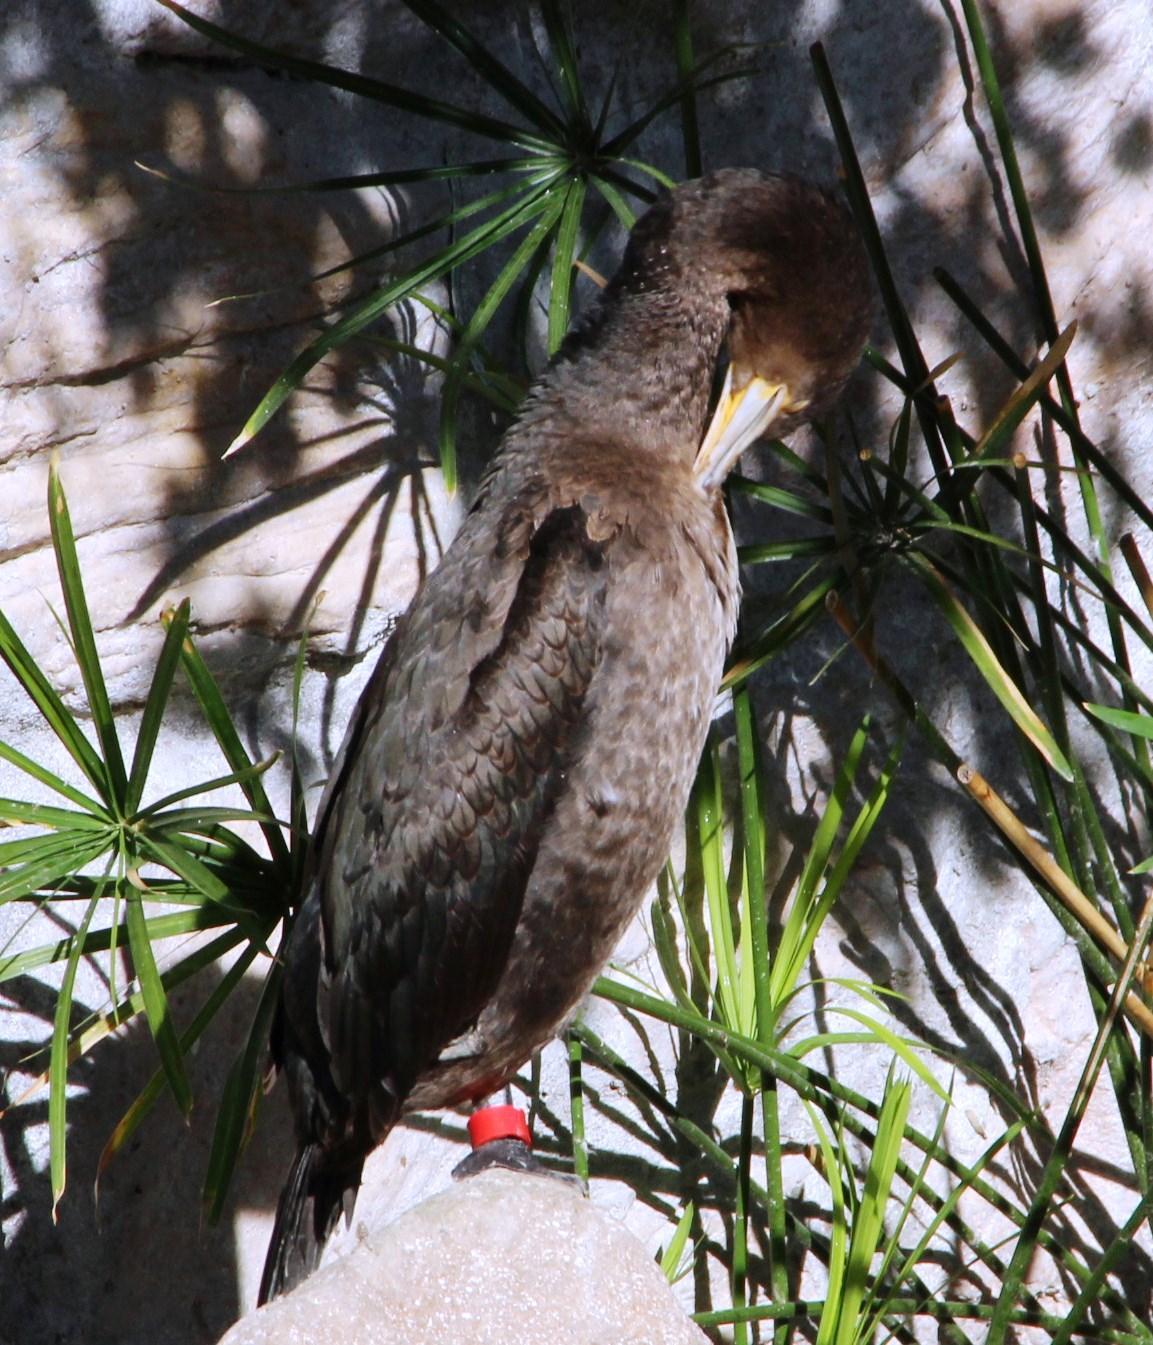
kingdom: Animalia
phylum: Chordata
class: Aves
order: Suliformes
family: Phalacrocoracidae
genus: Phalacrocorax
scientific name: Phalacrocorax capensis
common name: Cape cormorant
